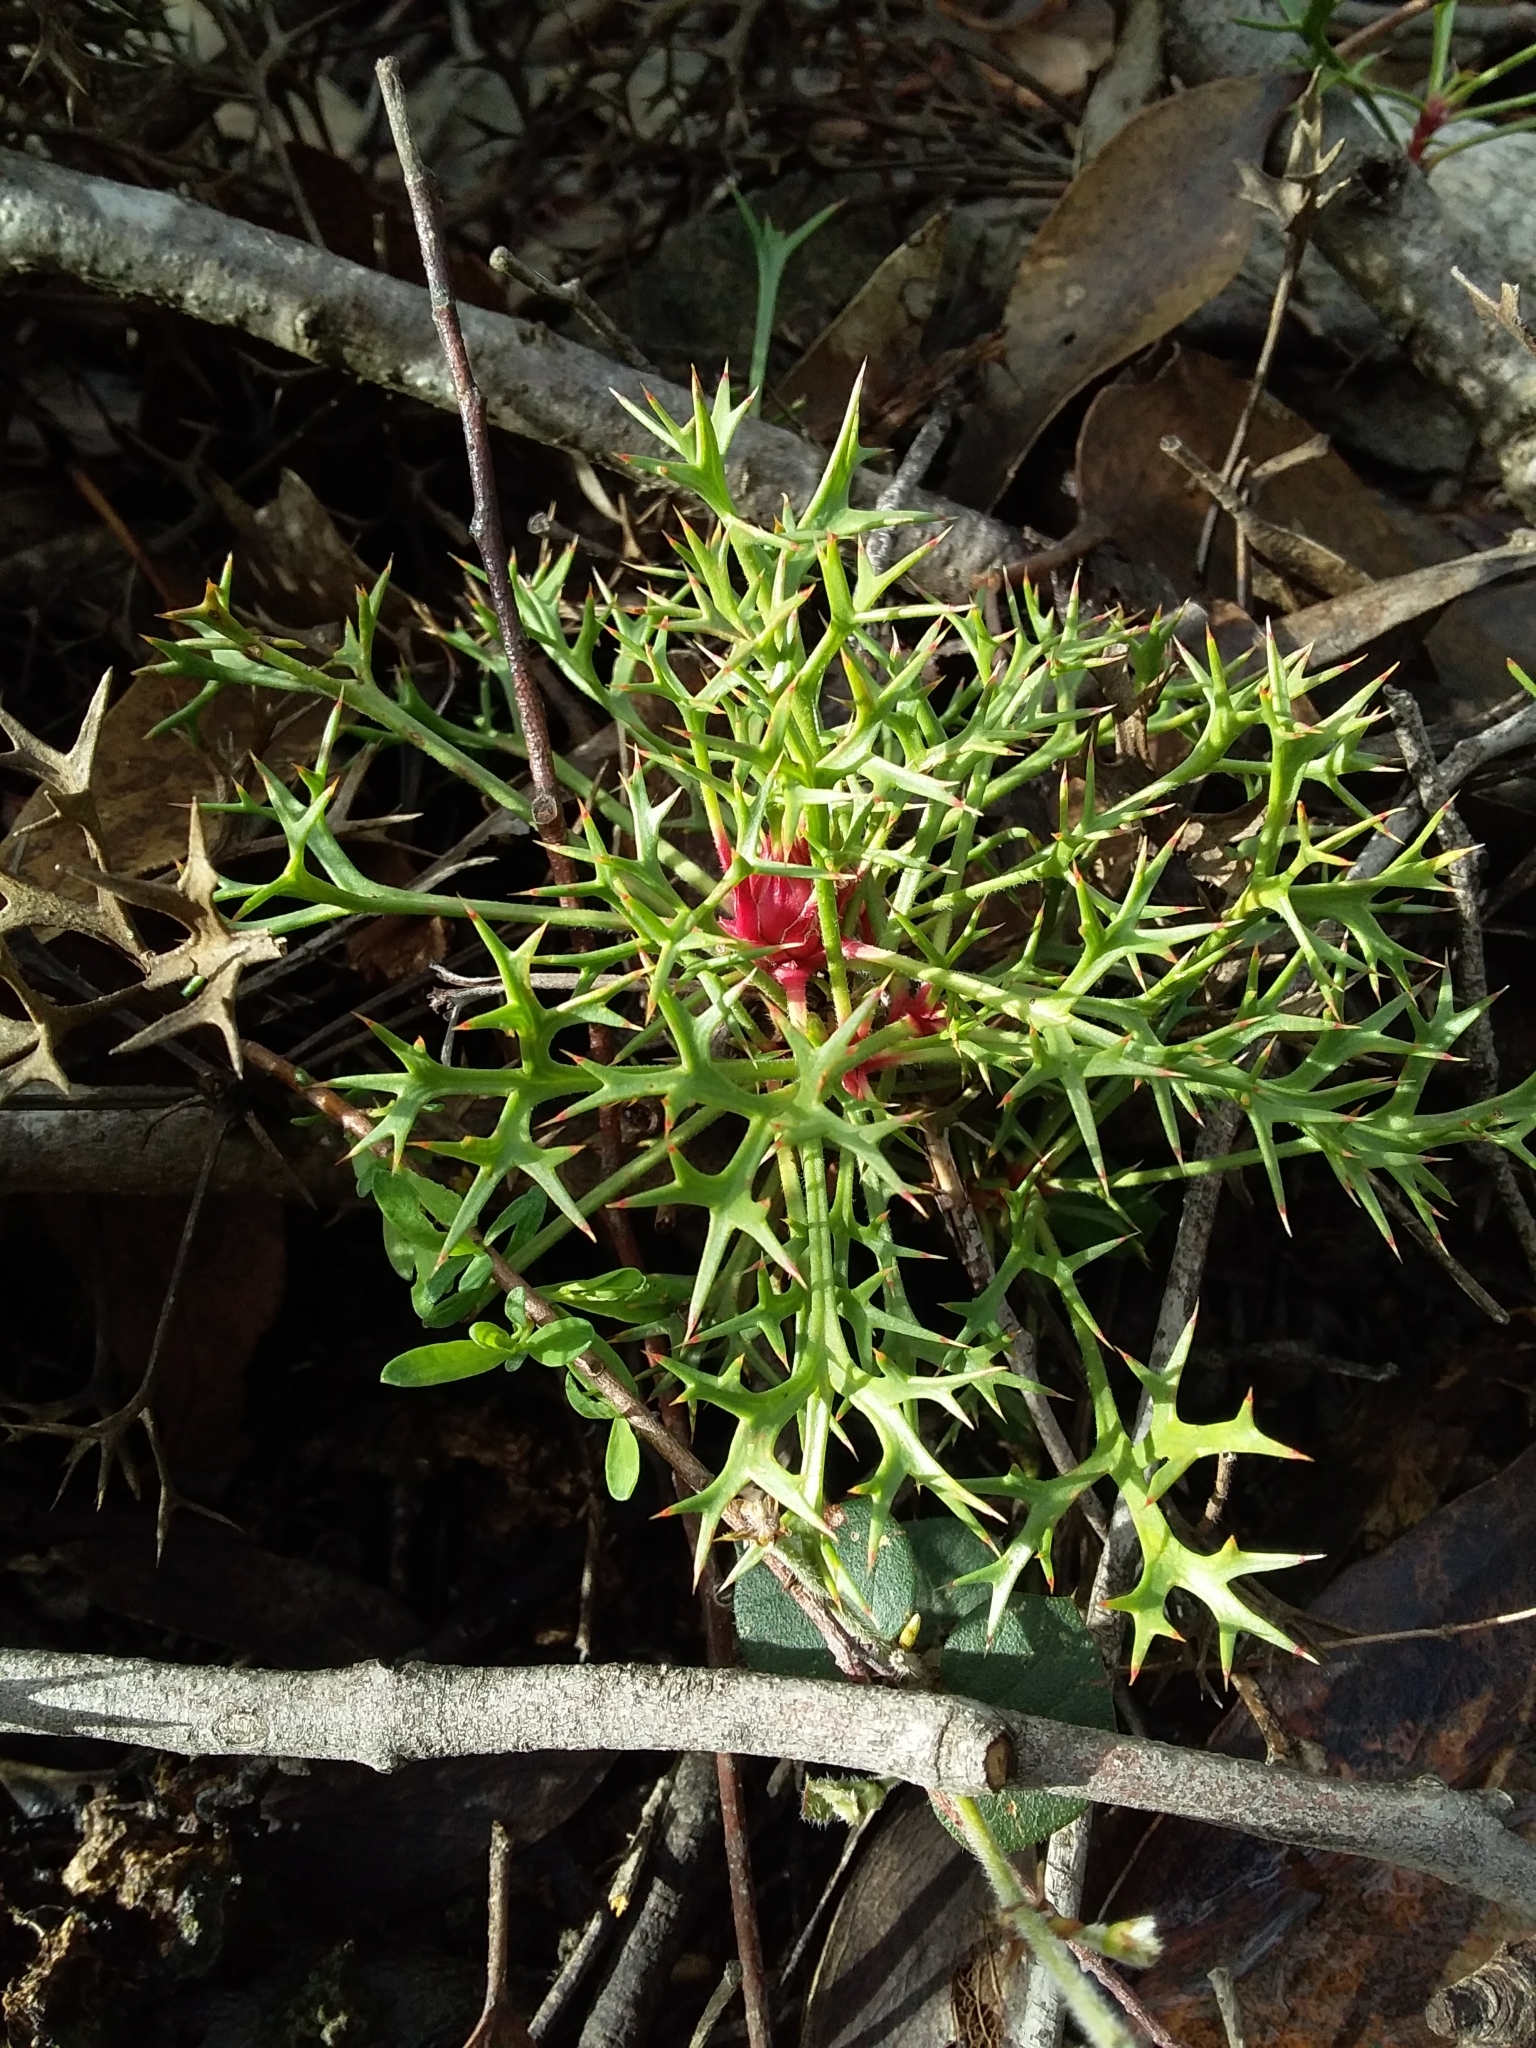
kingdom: Plantae
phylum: Tracheophyta
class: Magnoliopsida
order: Proteales
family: Proteaceae
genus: Isopogon
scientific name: Isopogon ceratophyllus
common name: Horny cone-bush
